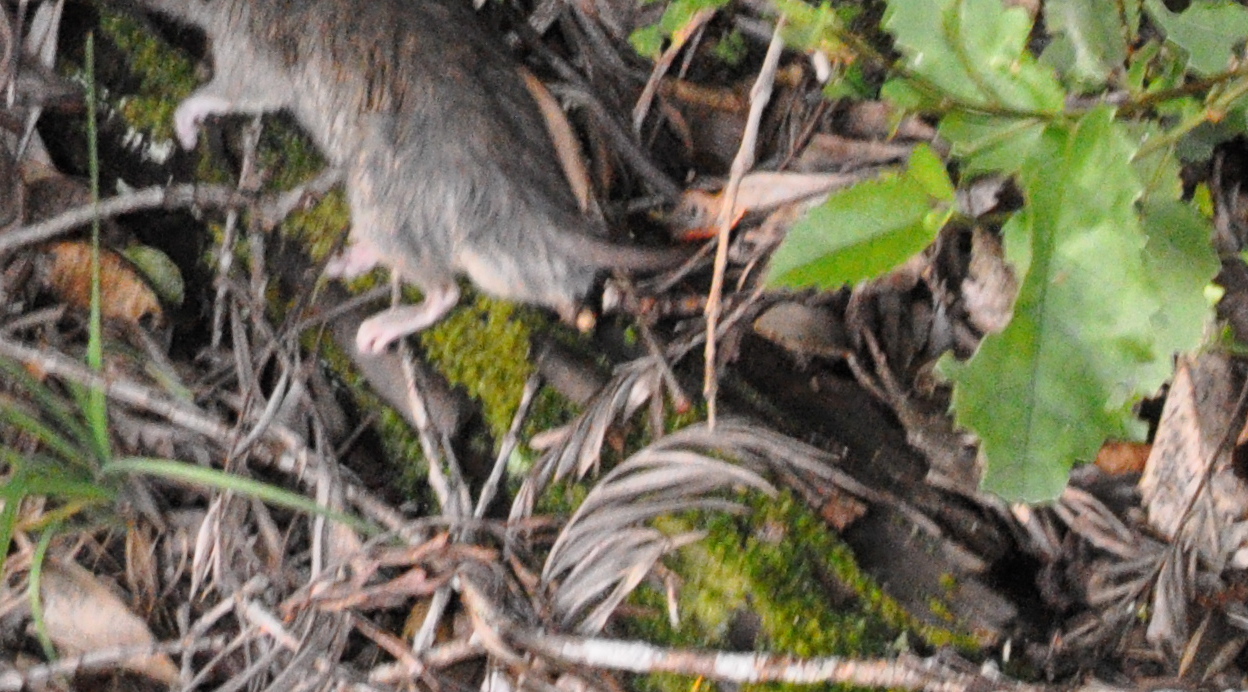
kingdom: Animalia
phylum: Chordata
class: Mammalia
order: Rodentia
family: Muridae
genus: Rattus
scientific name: Rattus rattus
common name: Black rat
